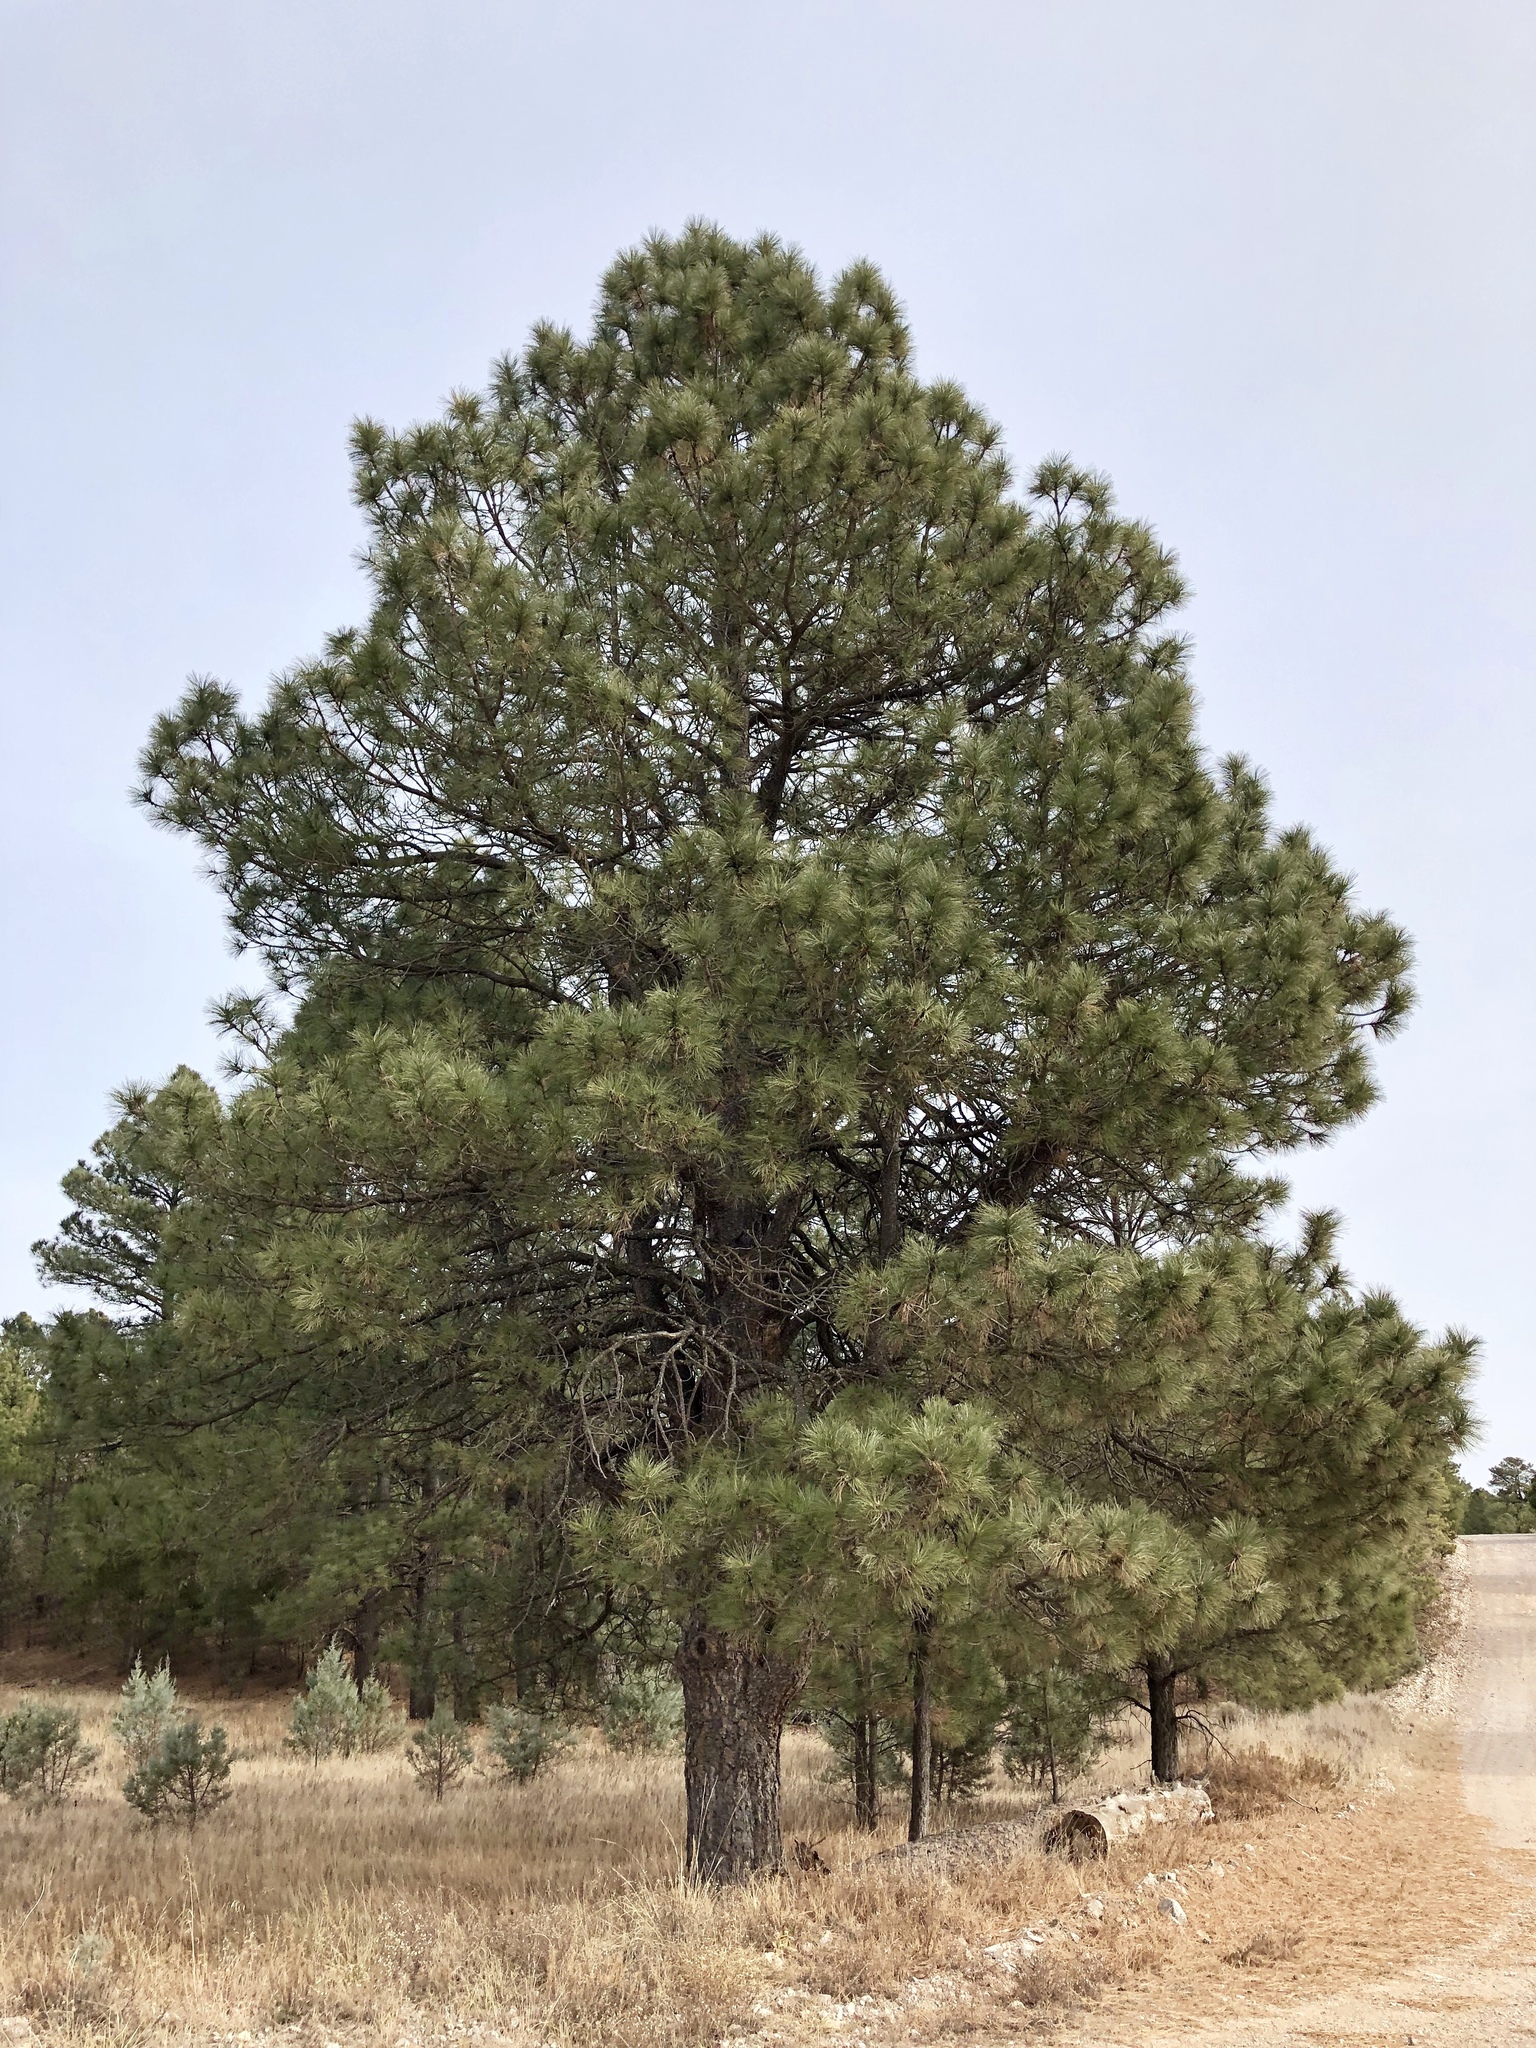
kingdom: Plantae
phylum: Tracheophyta
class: Pinopsida
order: Pinales
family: Pinaceae
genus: Pinus
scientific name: Pinus ponderosa
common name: Western yellow-pine
